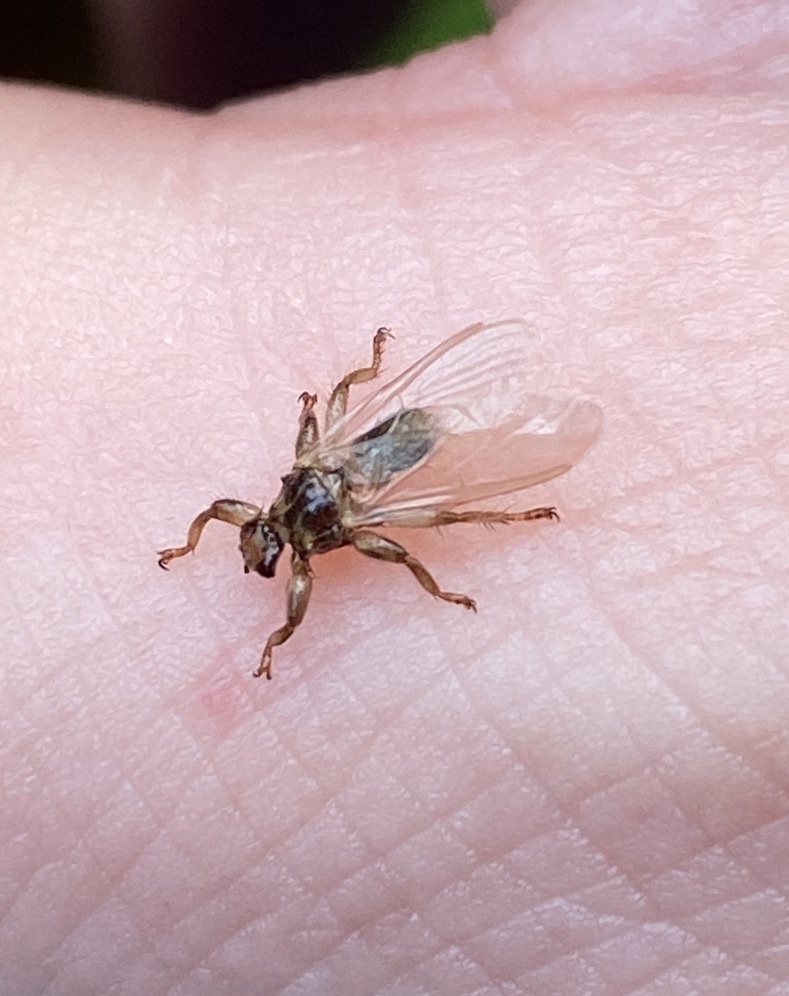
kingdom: Animalia
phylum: Arthropoda
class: Insecta
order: Diptera
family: Hippoboscidae
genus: Lipoptena
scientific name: Lipoptena cervi
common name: Deer ked
